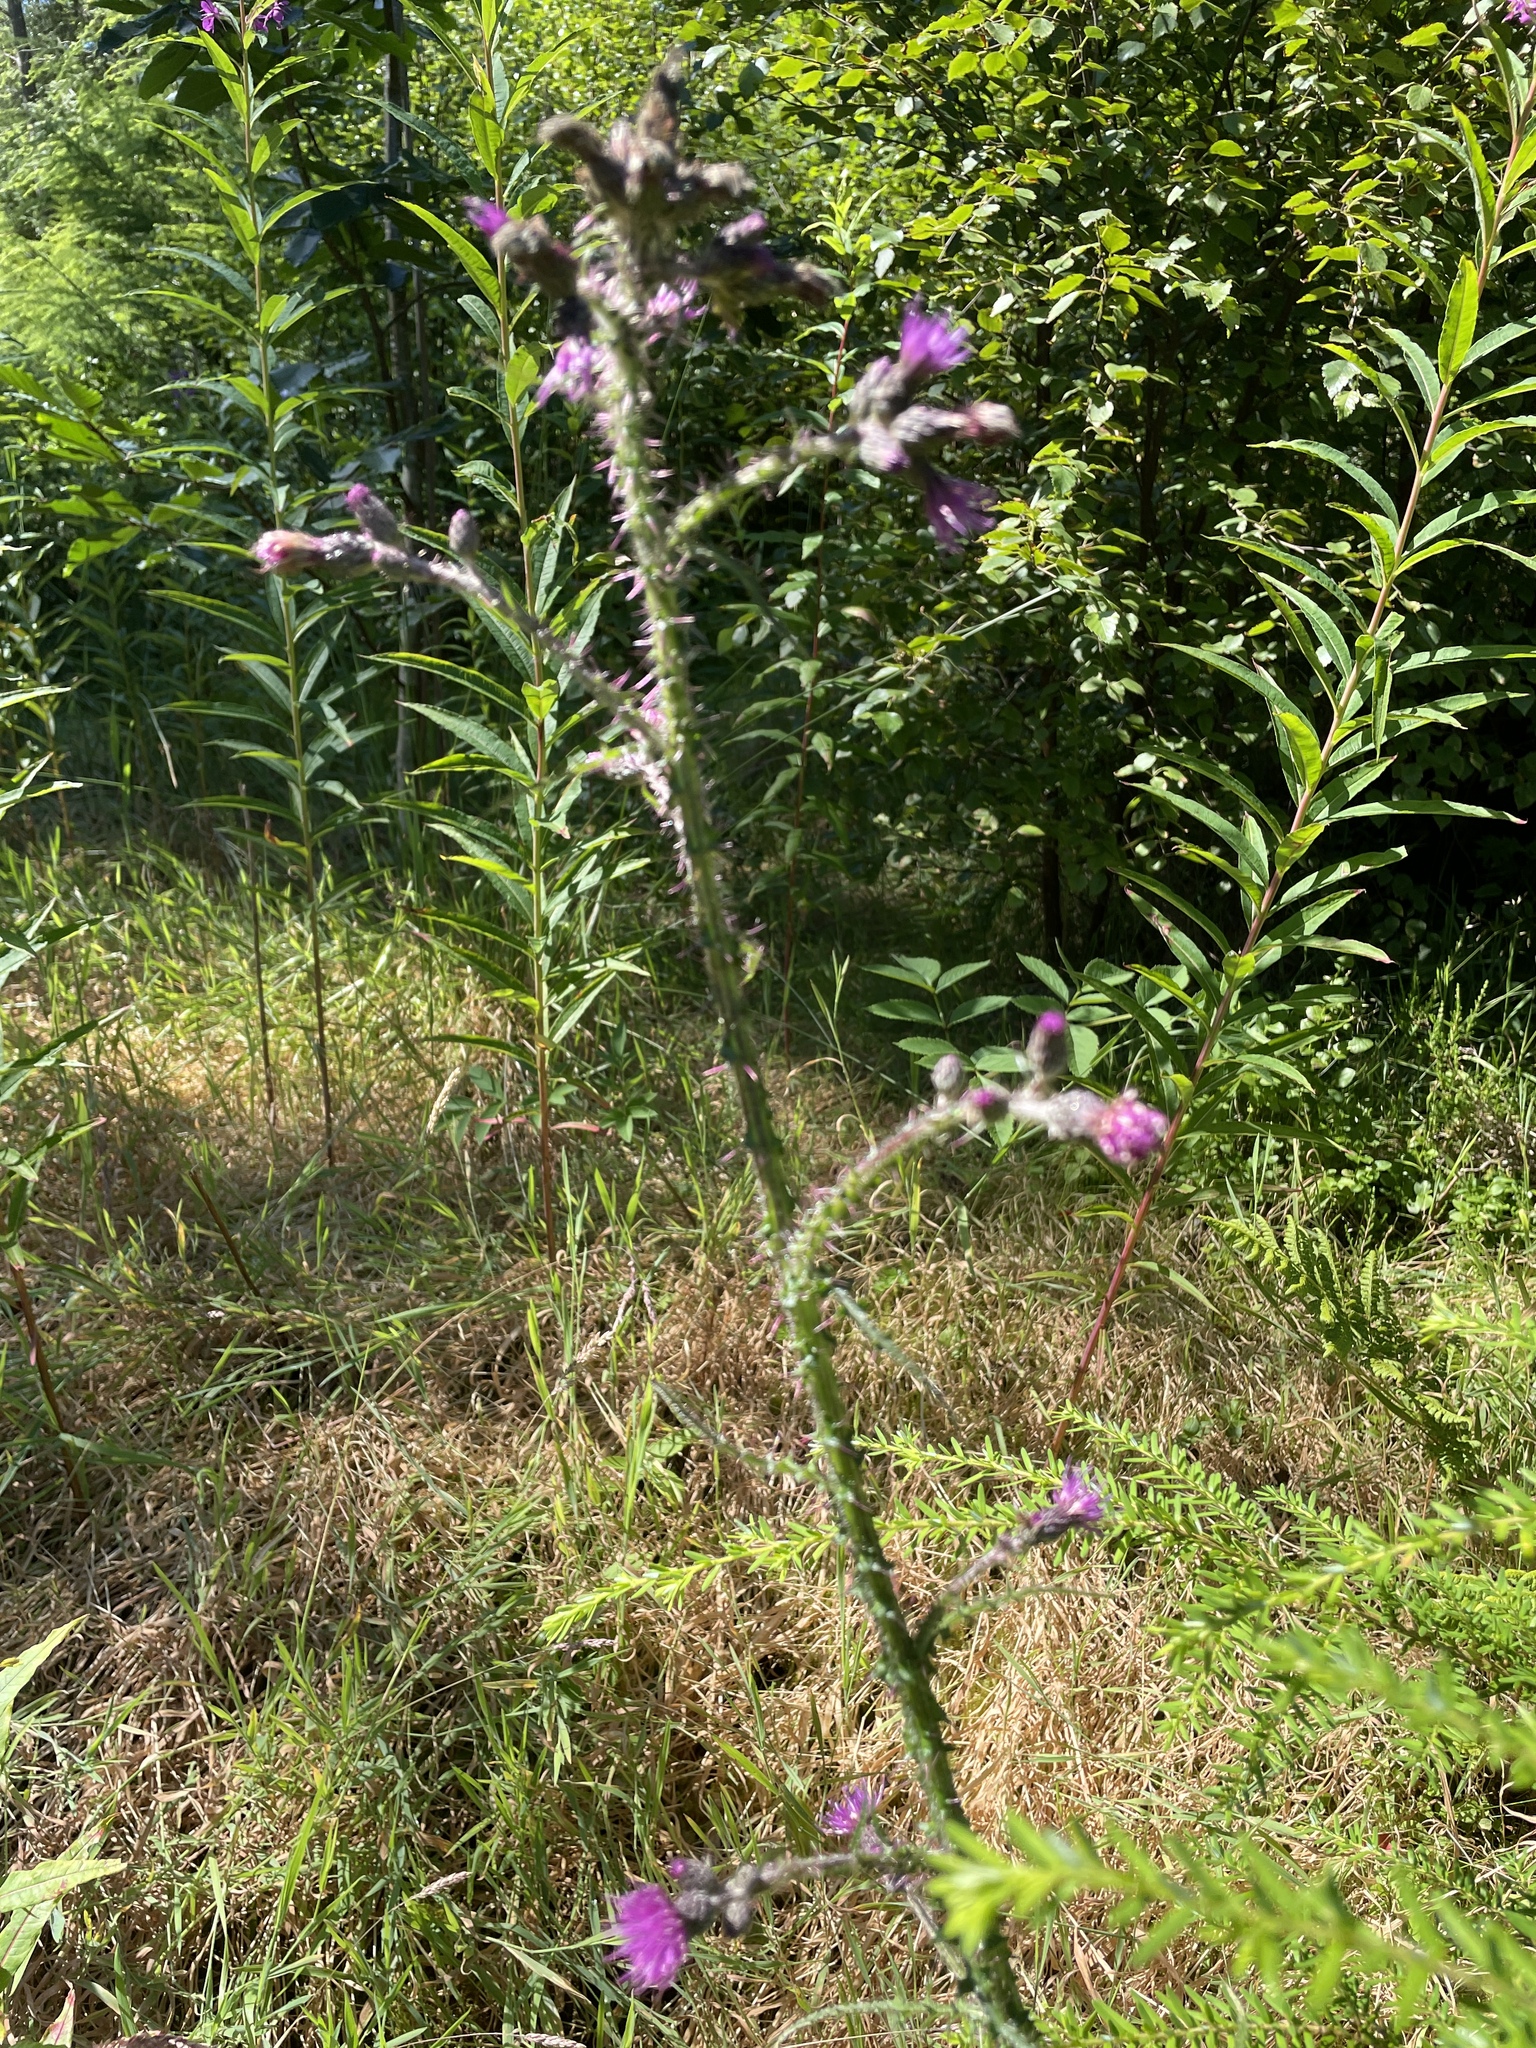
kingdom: Plantae
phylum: Tracheophyta
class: Magnoliopsida
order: Asterales
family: Asteraceae
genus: Cirsium
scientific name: Cirsium palustre
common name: Marsh thistle
